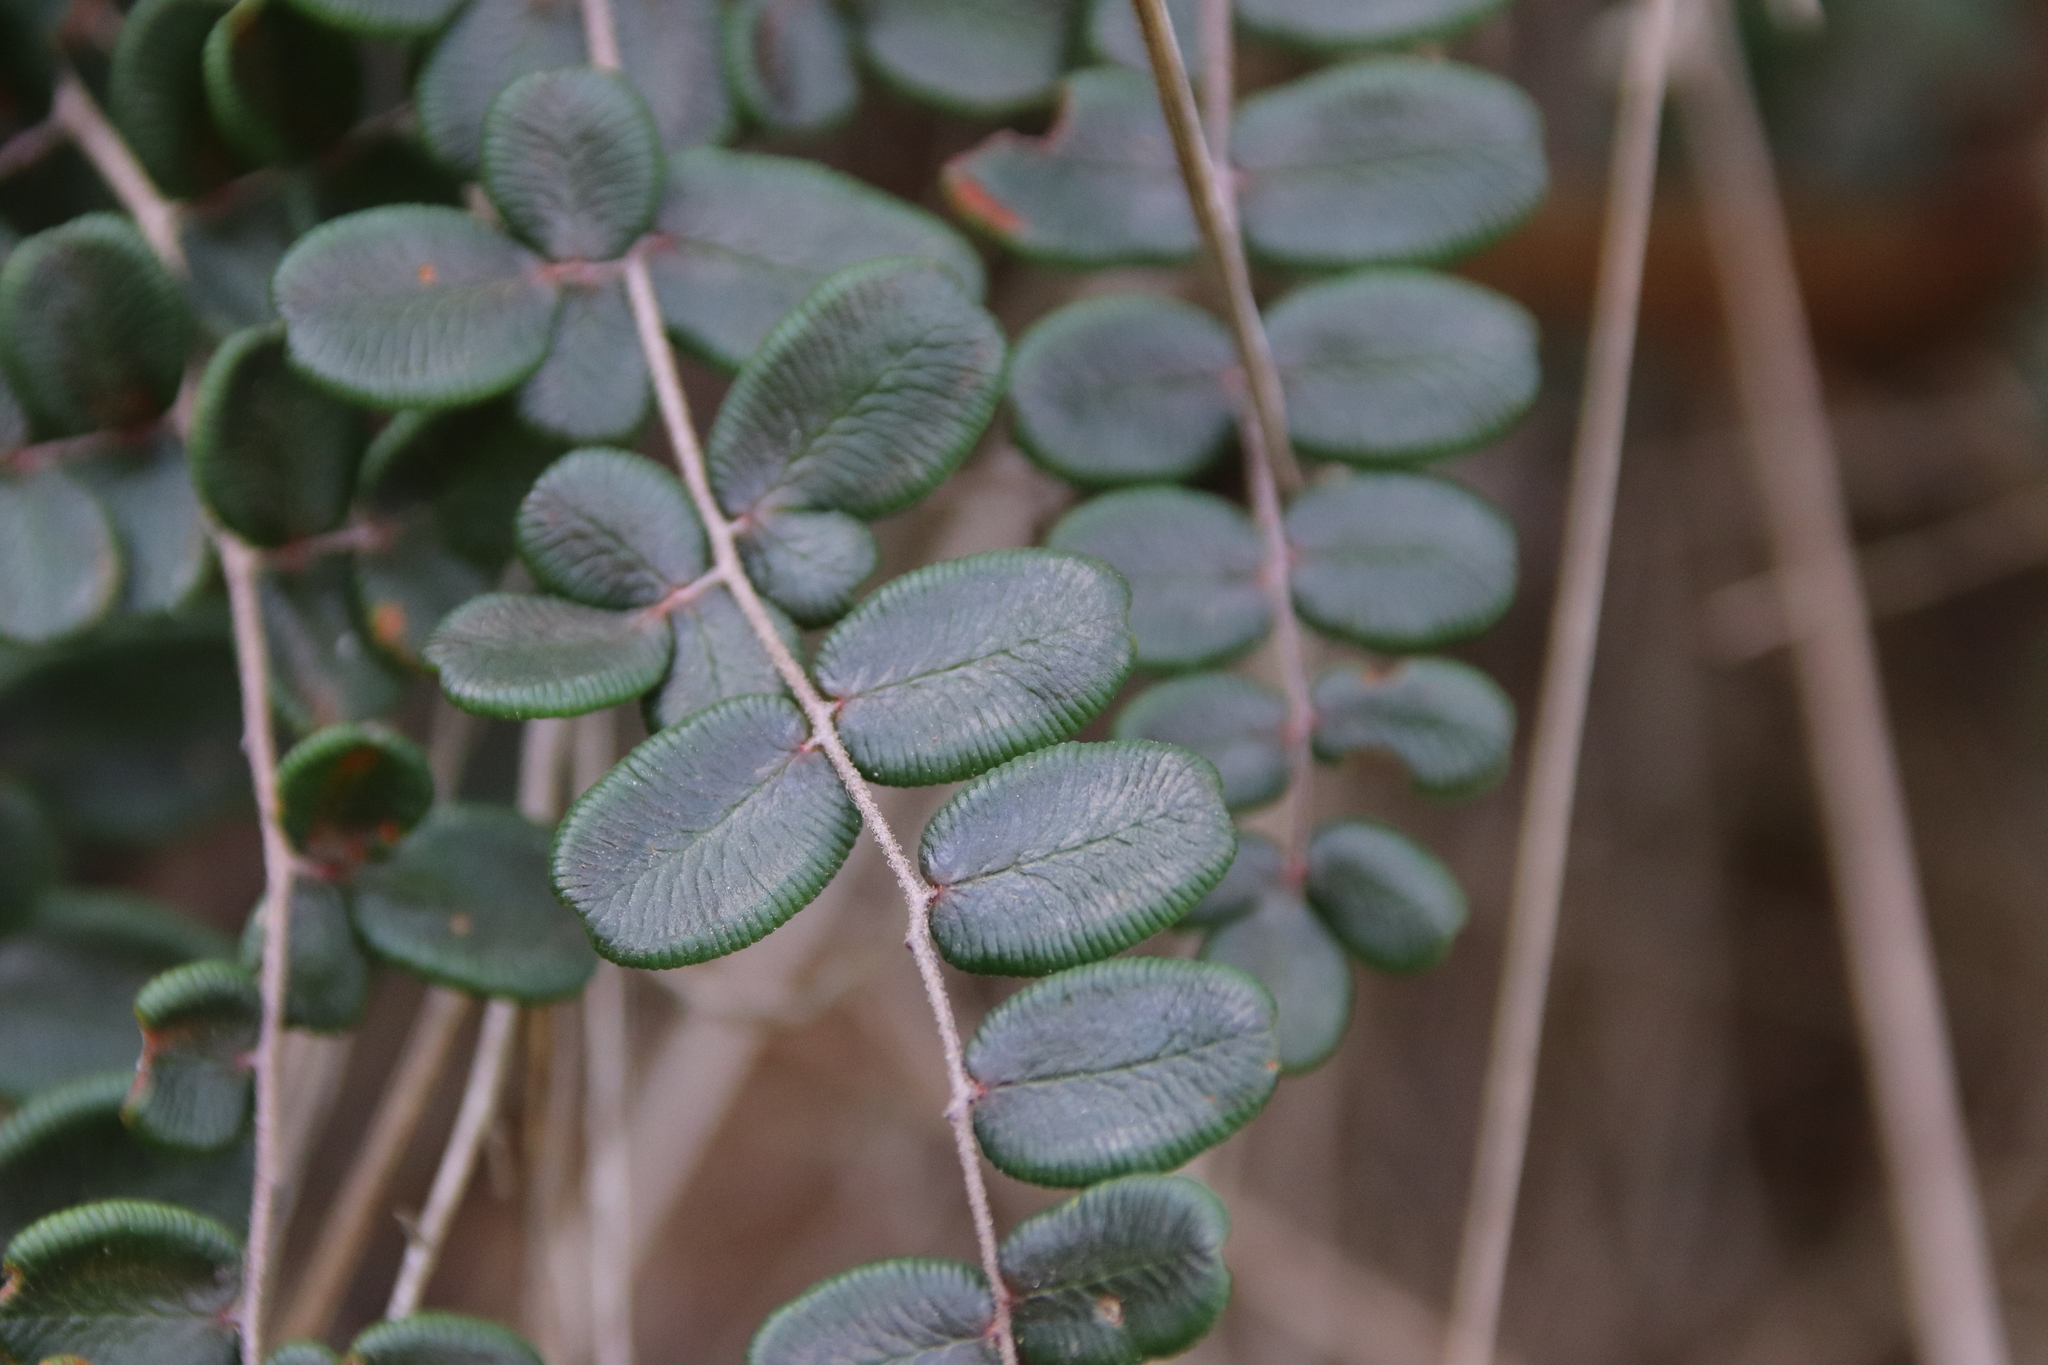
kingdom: Plantae
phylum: Tracheophyta
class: Polypodiopsida
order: Polypodiales
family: Pteridaceae
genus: Pellaea
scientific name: Pellaea andromedifolia
